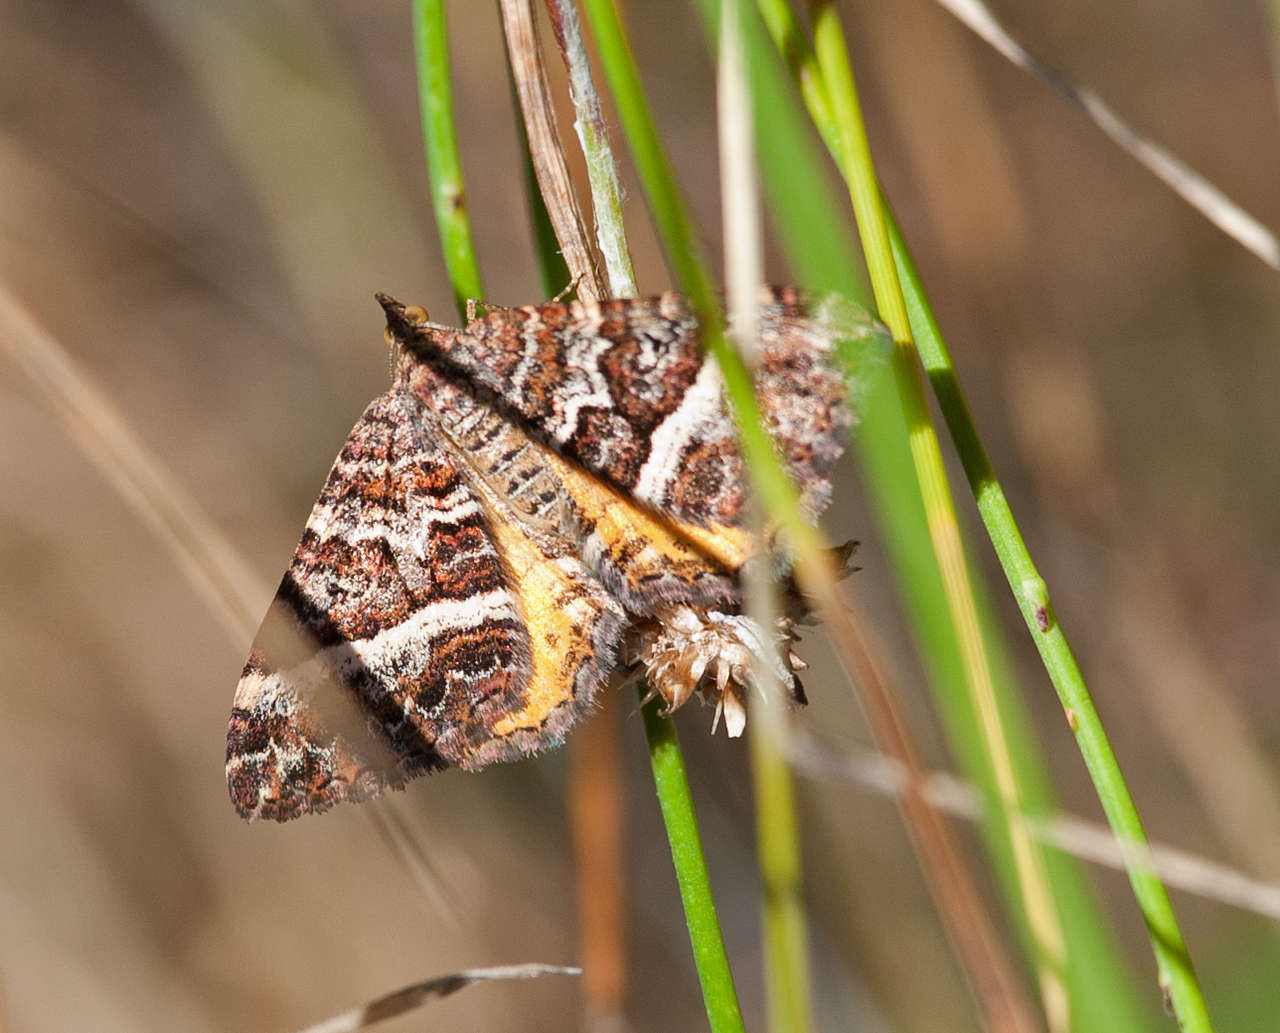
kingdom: Animalia
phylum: Arthropoda
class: Insecta
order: Lepidoptera
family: Geometridae
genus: Chrysolarentia
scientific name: Chrysolarentia vicissata
